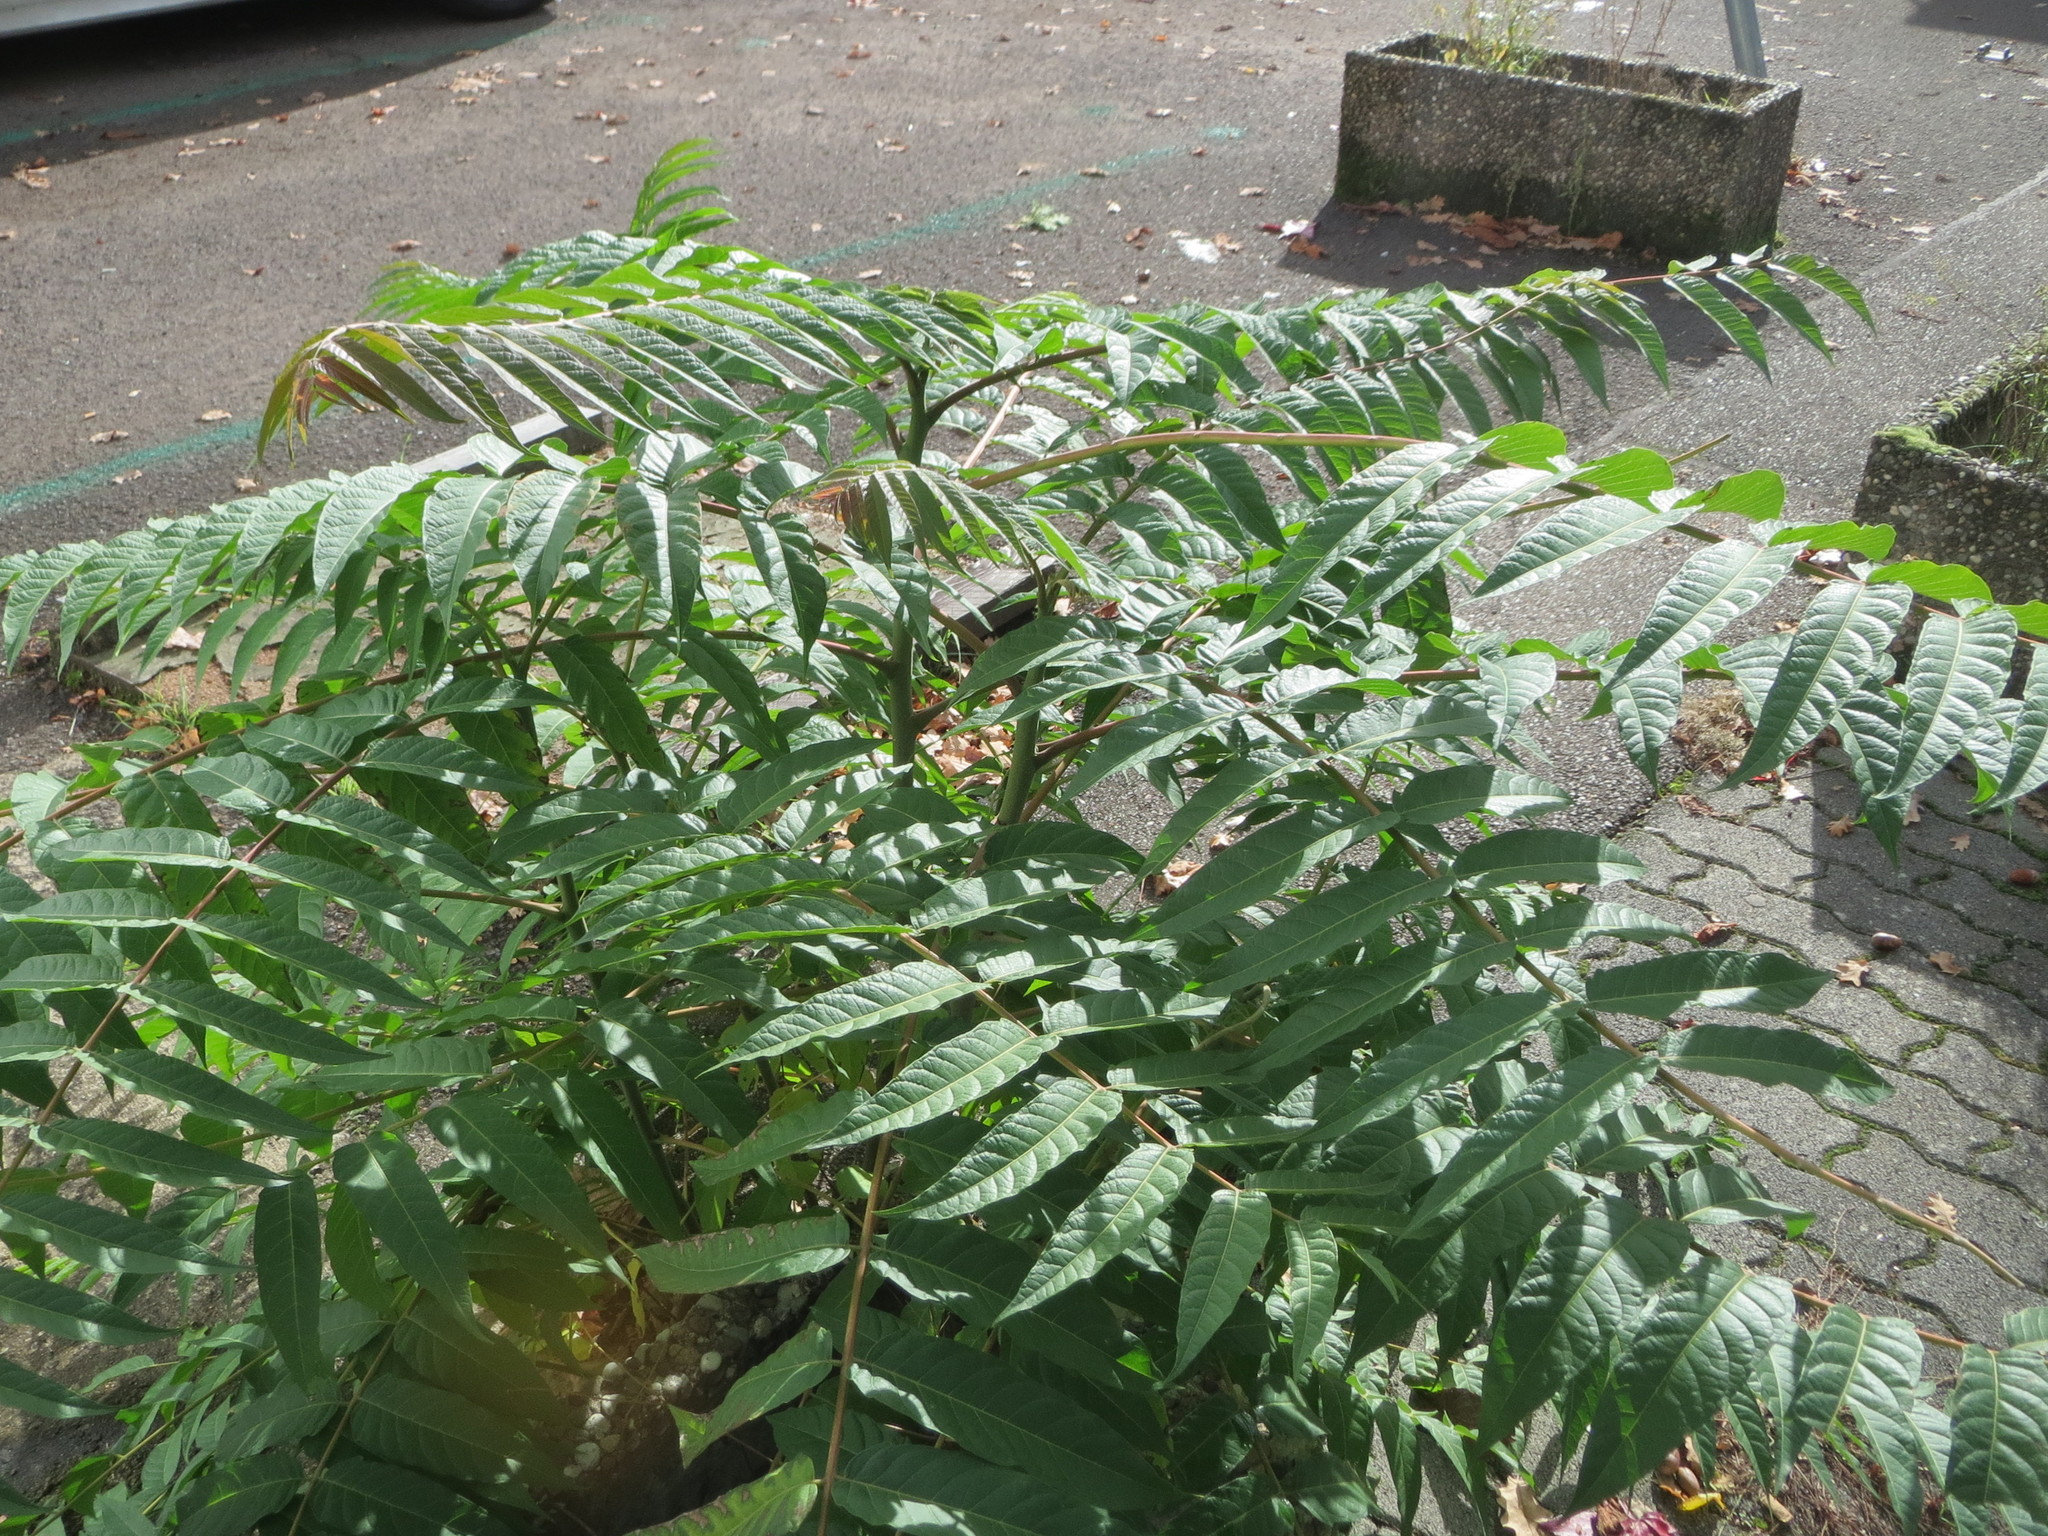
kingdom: Plantae
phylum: Tracheophyta
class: Magnoliopsida
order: Sapindales
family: Simaroubaceae
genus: Ailanthus
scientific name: Ailanthus altissima
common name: Tree-of-heaven
